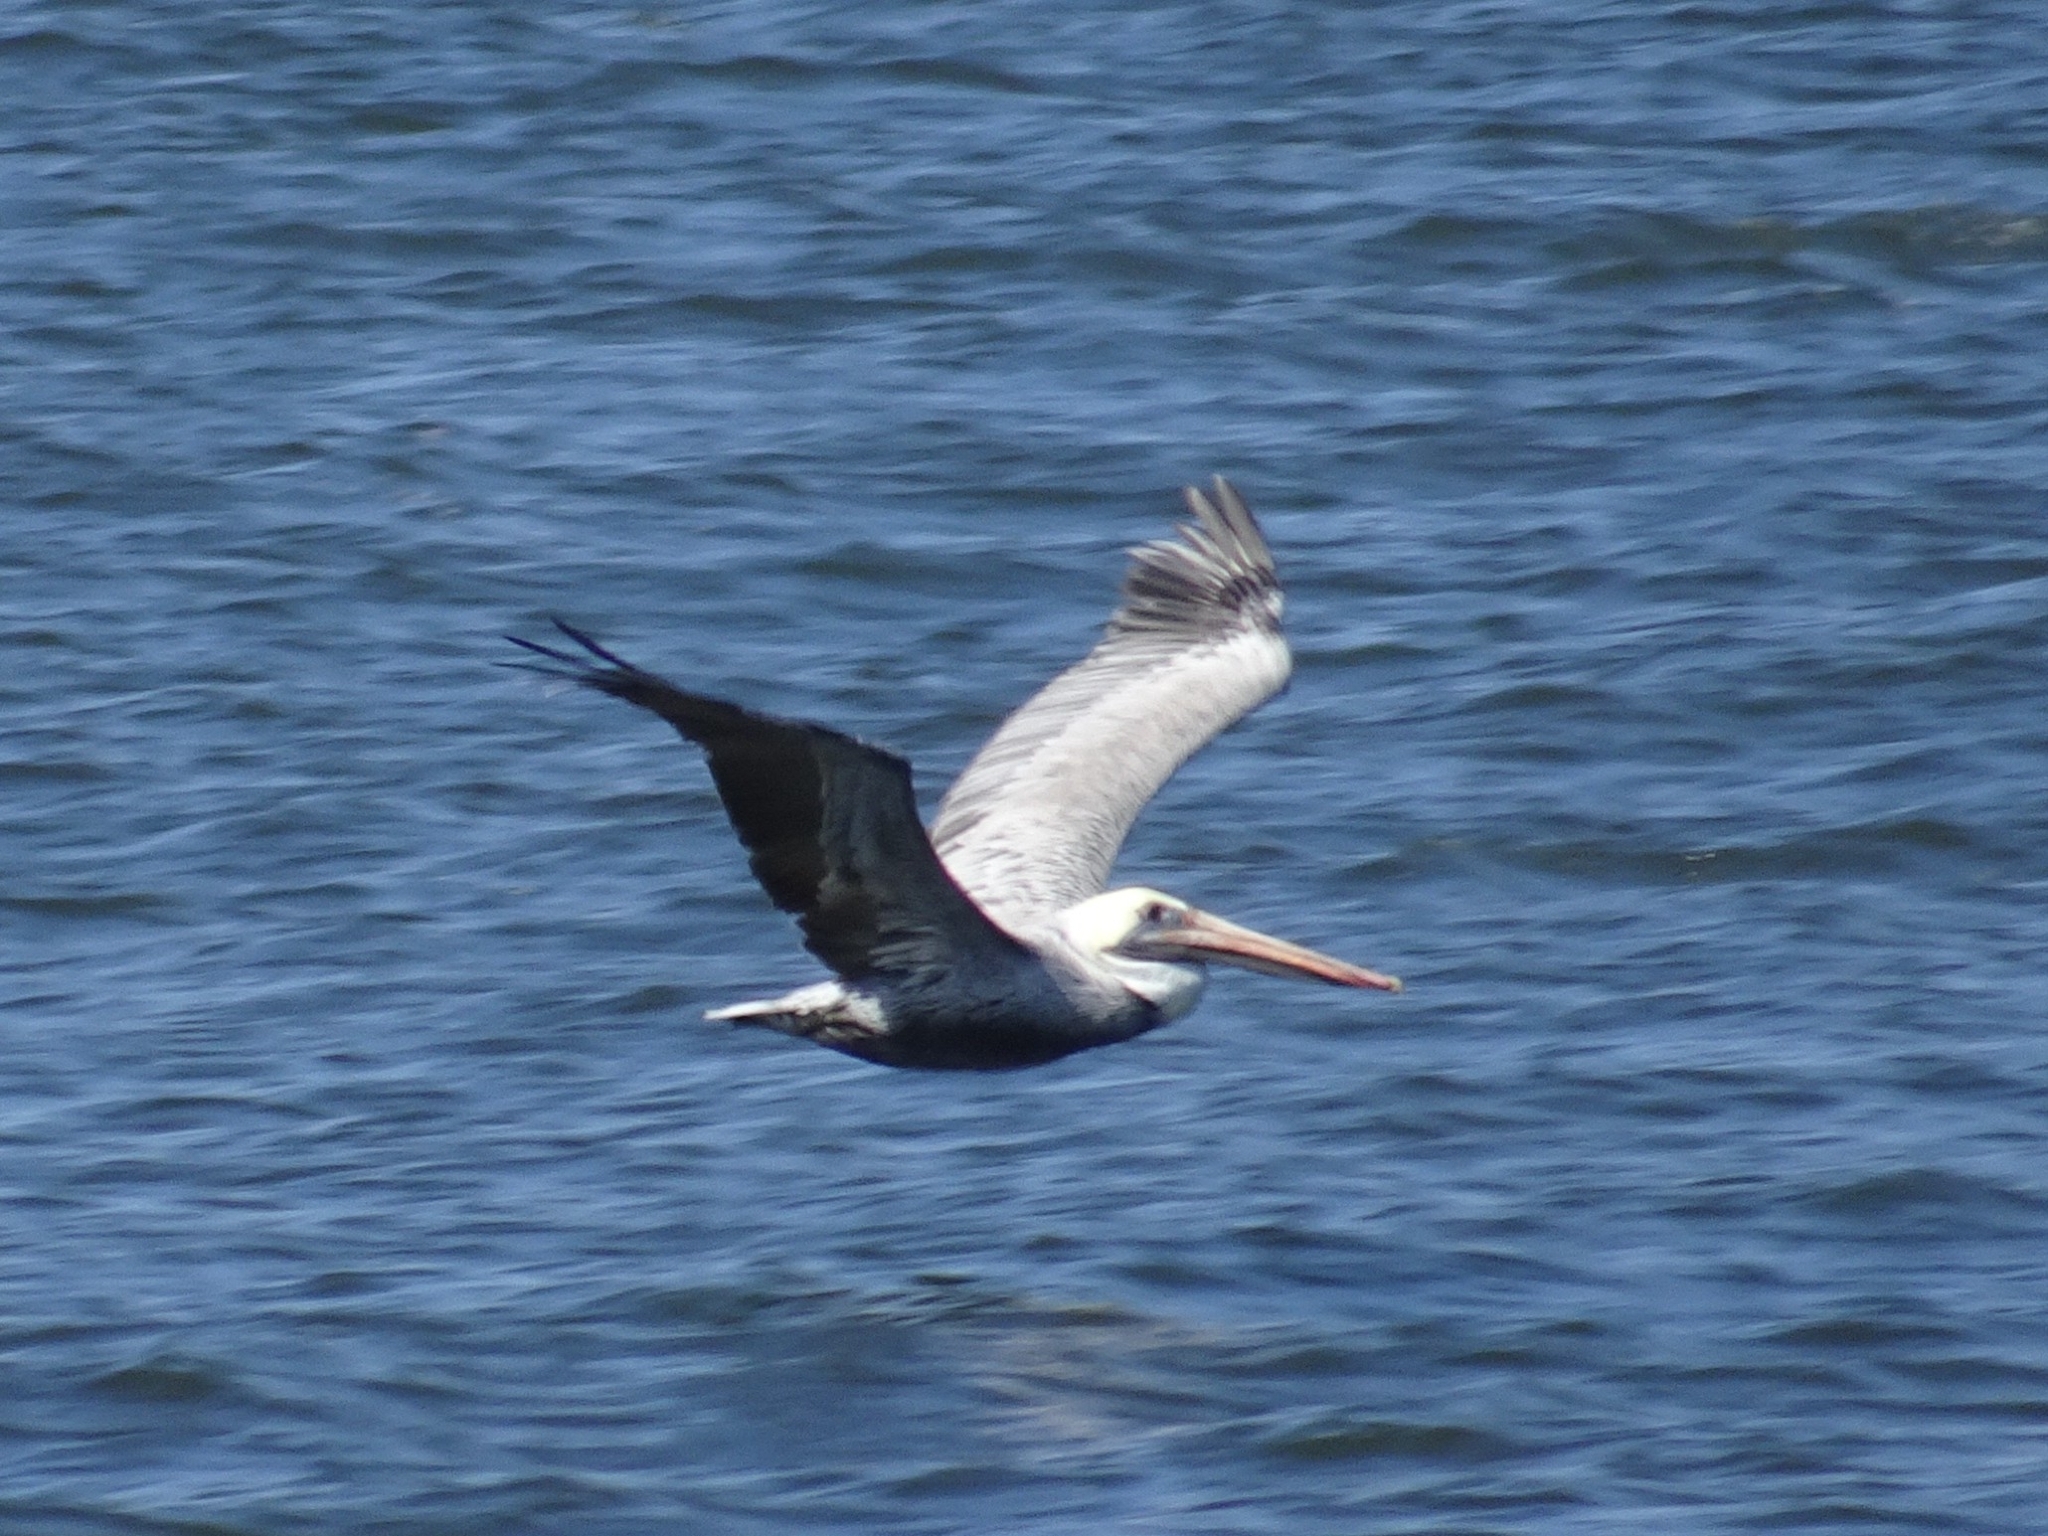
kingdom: Animalia
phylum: Chordata
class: Aves
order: Pelecaniformes
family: Pelecanidae
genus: Pelecanus
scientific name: Pelecanus occidentalis
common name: Brown pelican
